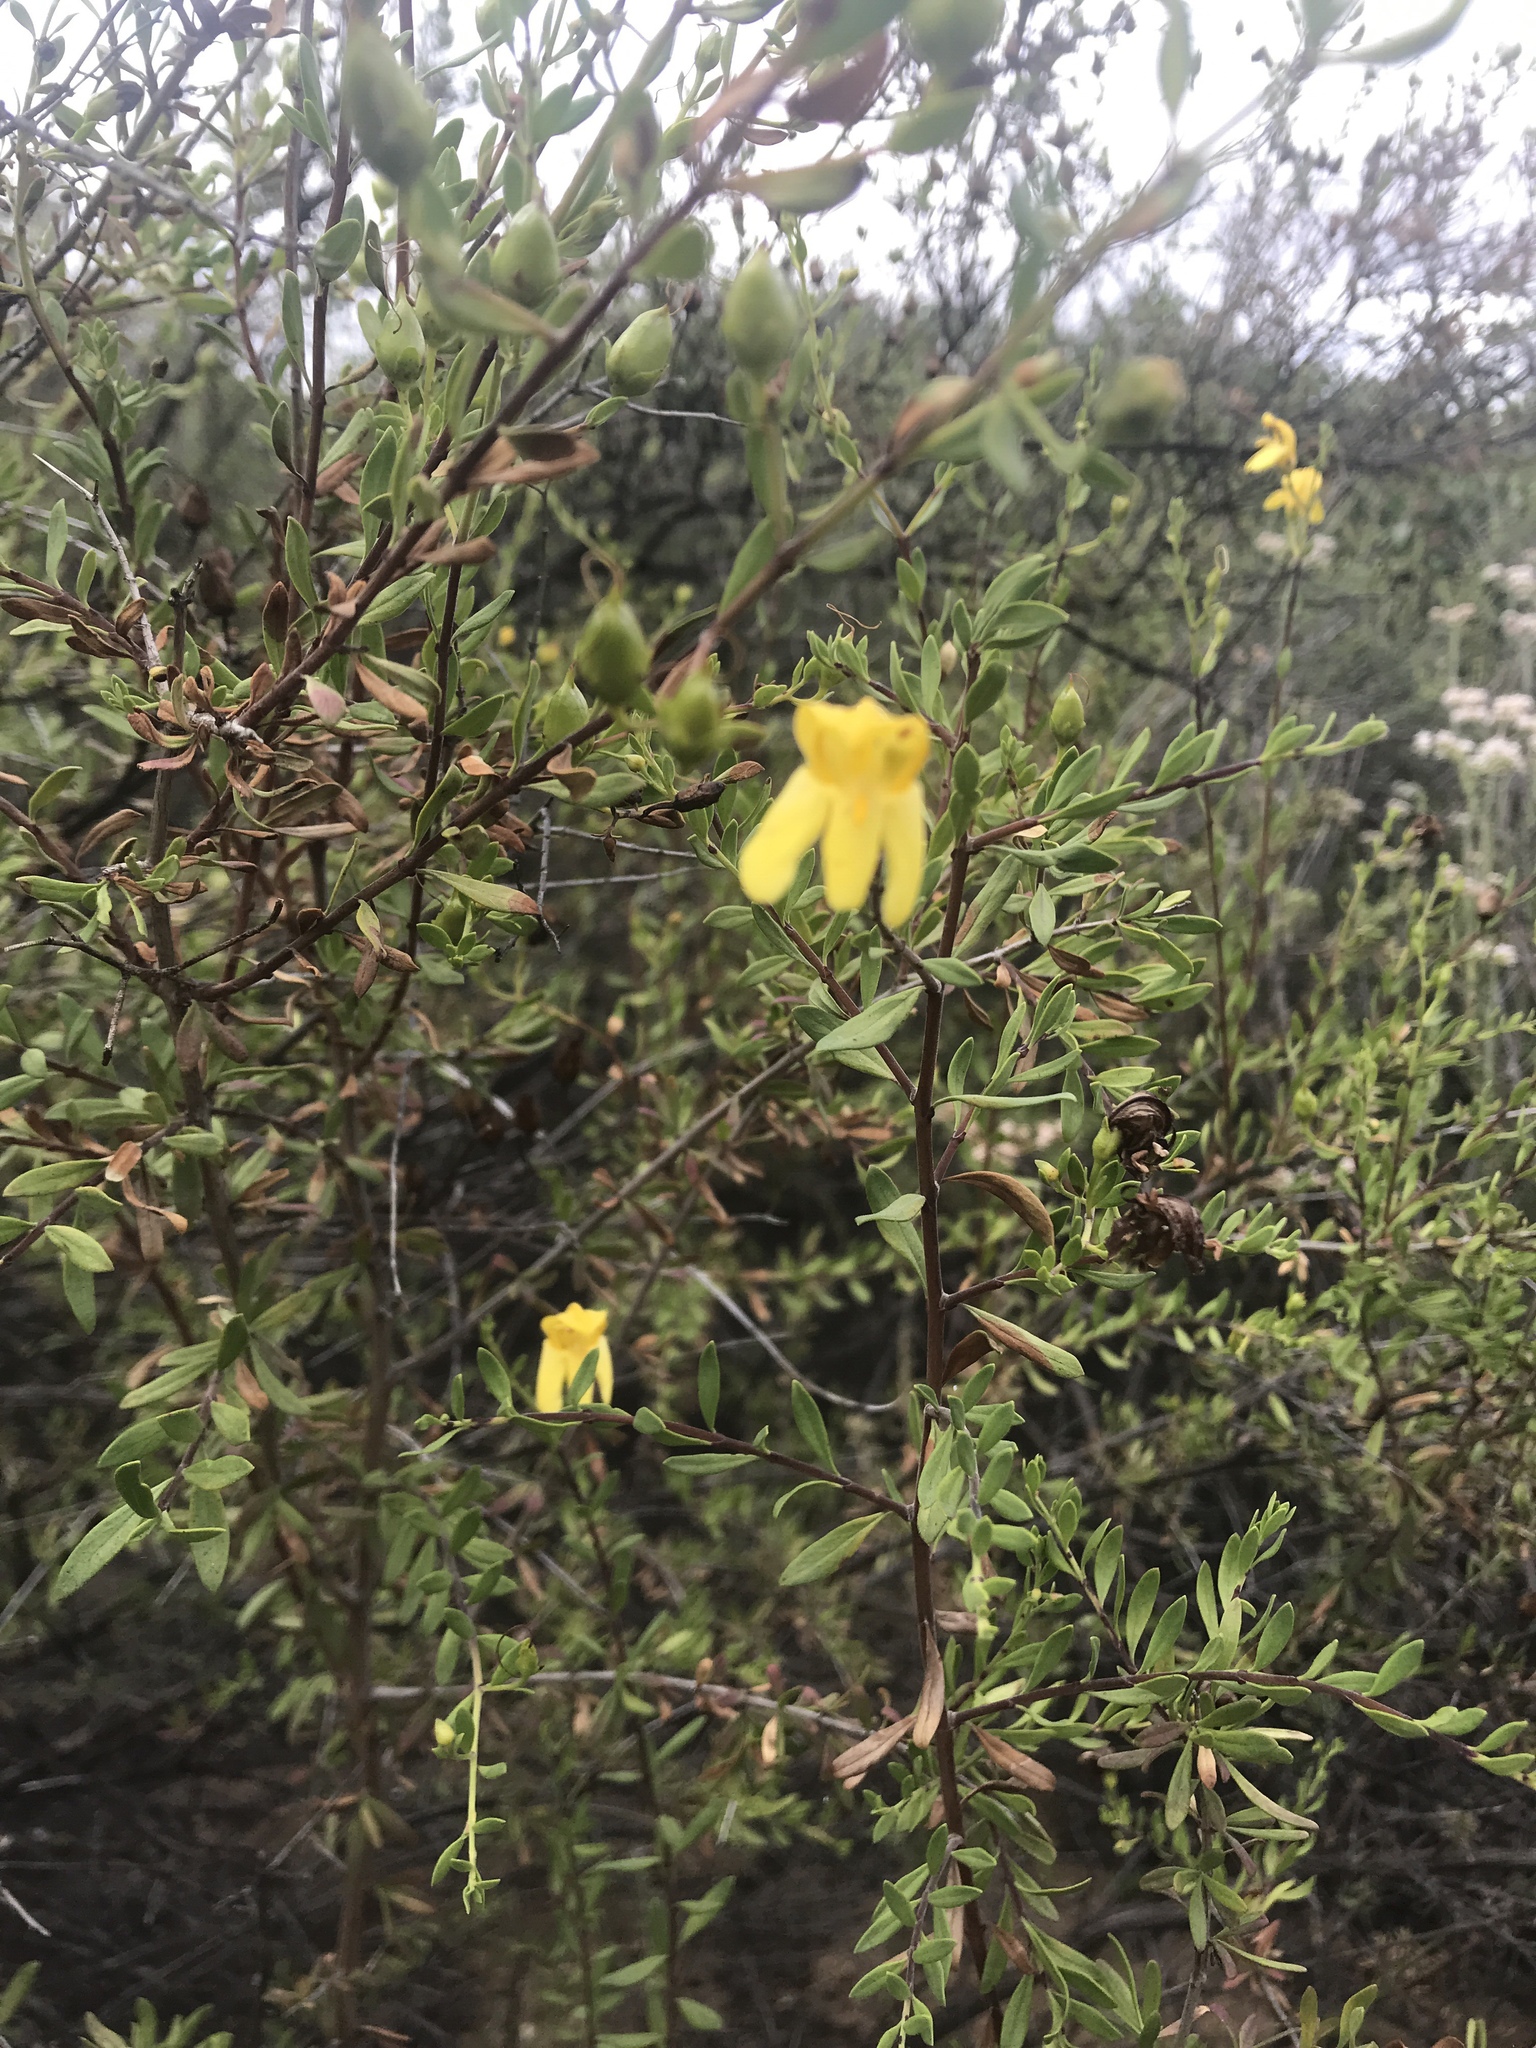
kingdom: Plantae
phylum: Tracheophyta
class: Magnoliopsida
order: Lamiales
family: Plantaginaceae
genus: Keckiella
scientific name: Keckiella antirrhinoides
